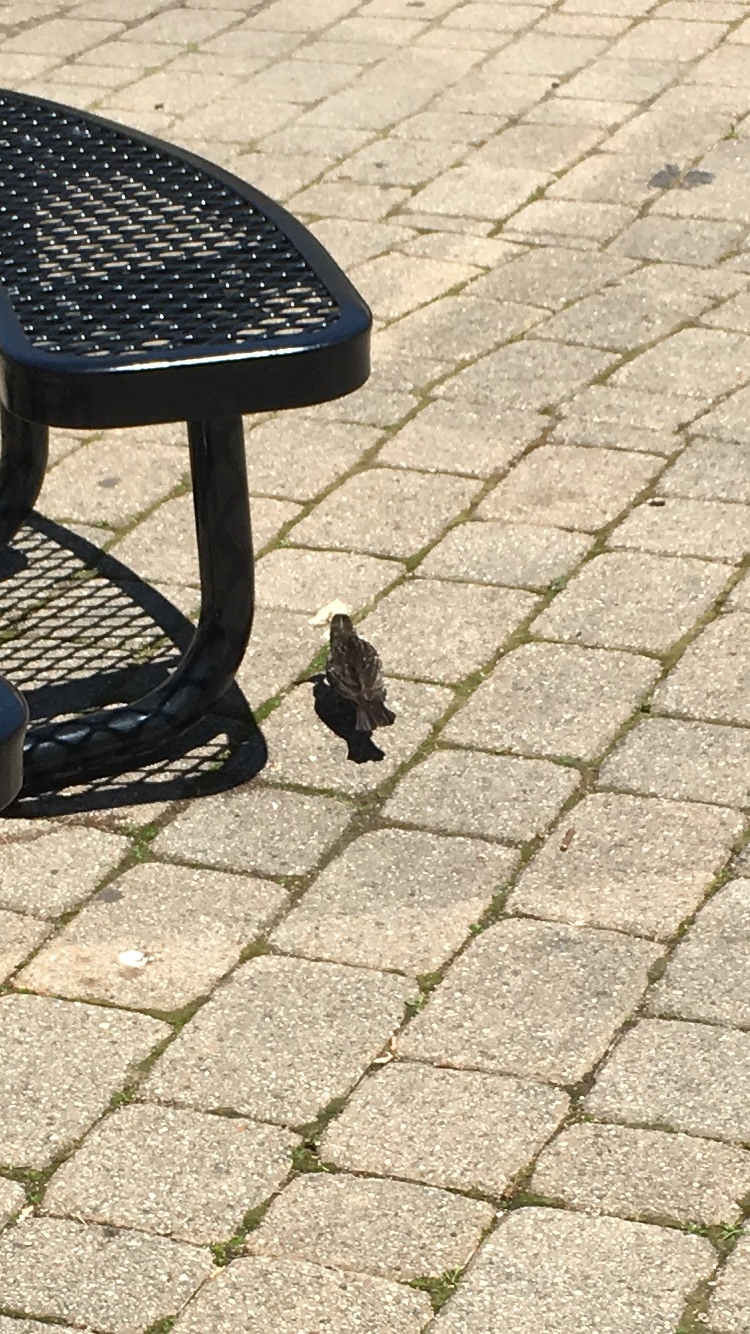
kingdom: Animalia
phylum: Chordata
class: Aves
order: Passeriformes
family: Icteridae
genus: Agelaius
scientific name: Agelaius phoeniceus
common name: Red-winged blackbird
